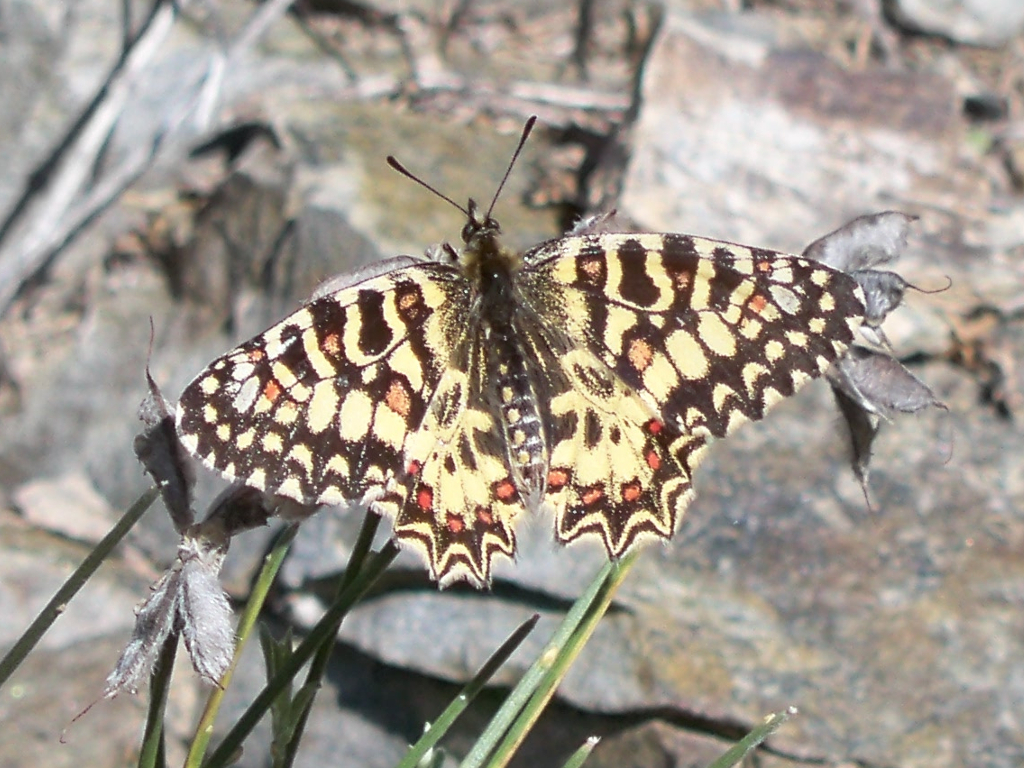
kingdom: Animalia
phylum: Arthropoda
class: Insecta
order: Lepidoptera
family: Papilionidae
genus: Zerynthia
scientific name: Zerynthia rumina
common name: Spanish festoon
